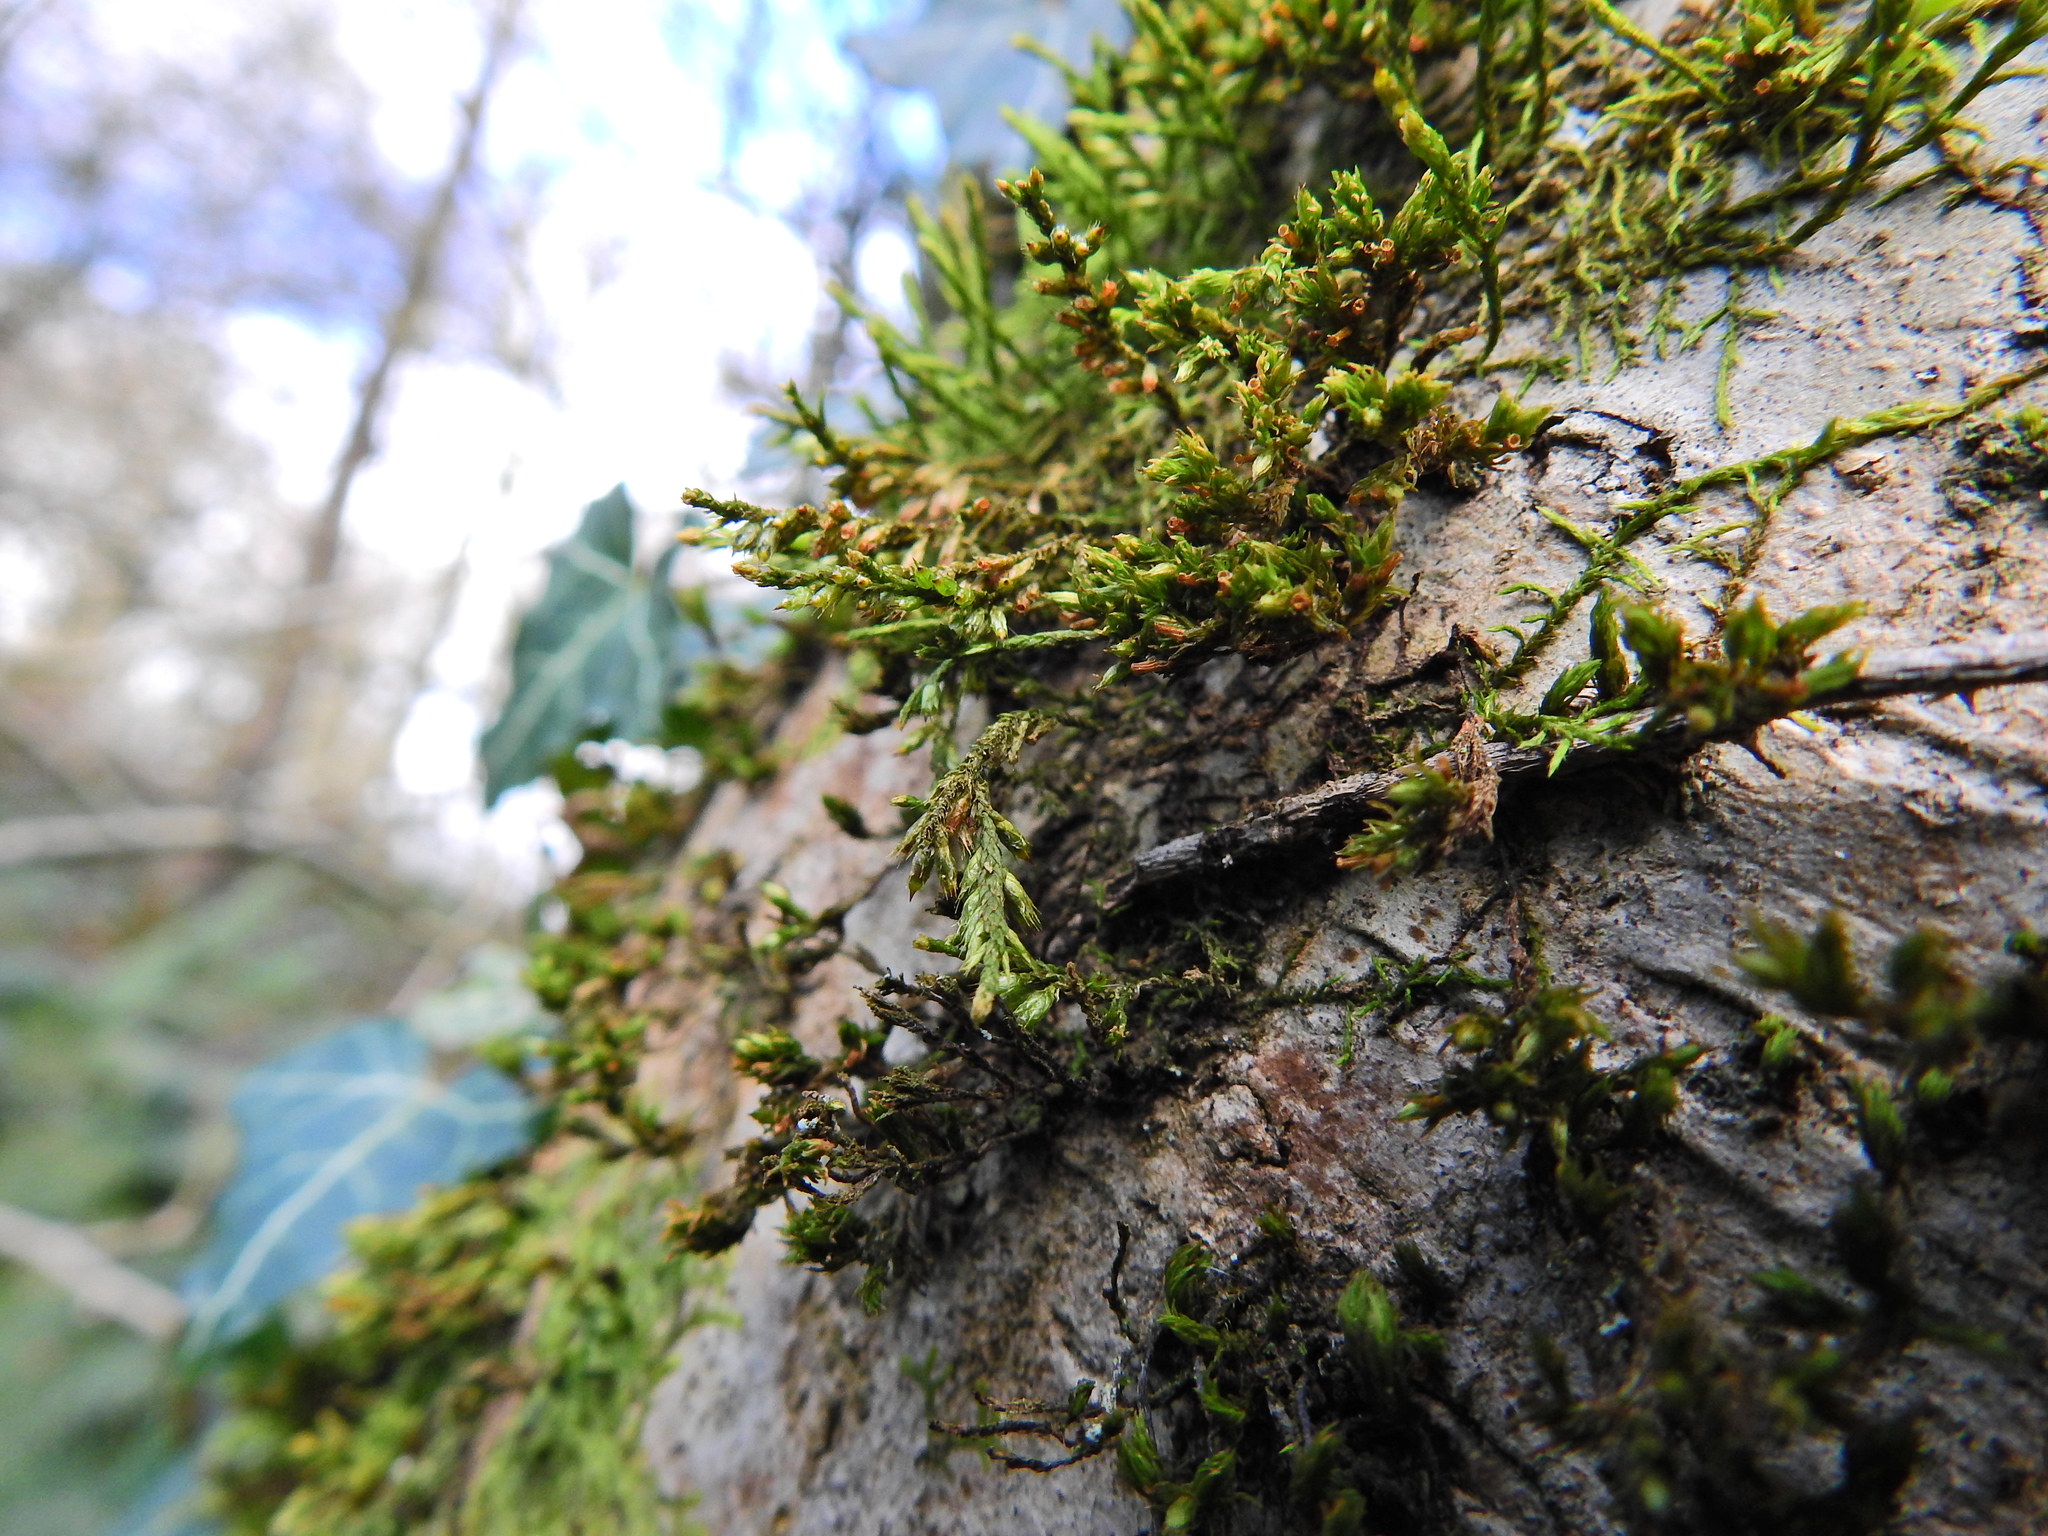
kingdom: Plantae
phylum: Bryophyta
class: Bryopsida
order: Hypnales
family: Cryphaeaceae
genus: Cryphaea
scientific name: Cryphaea heteromalla
